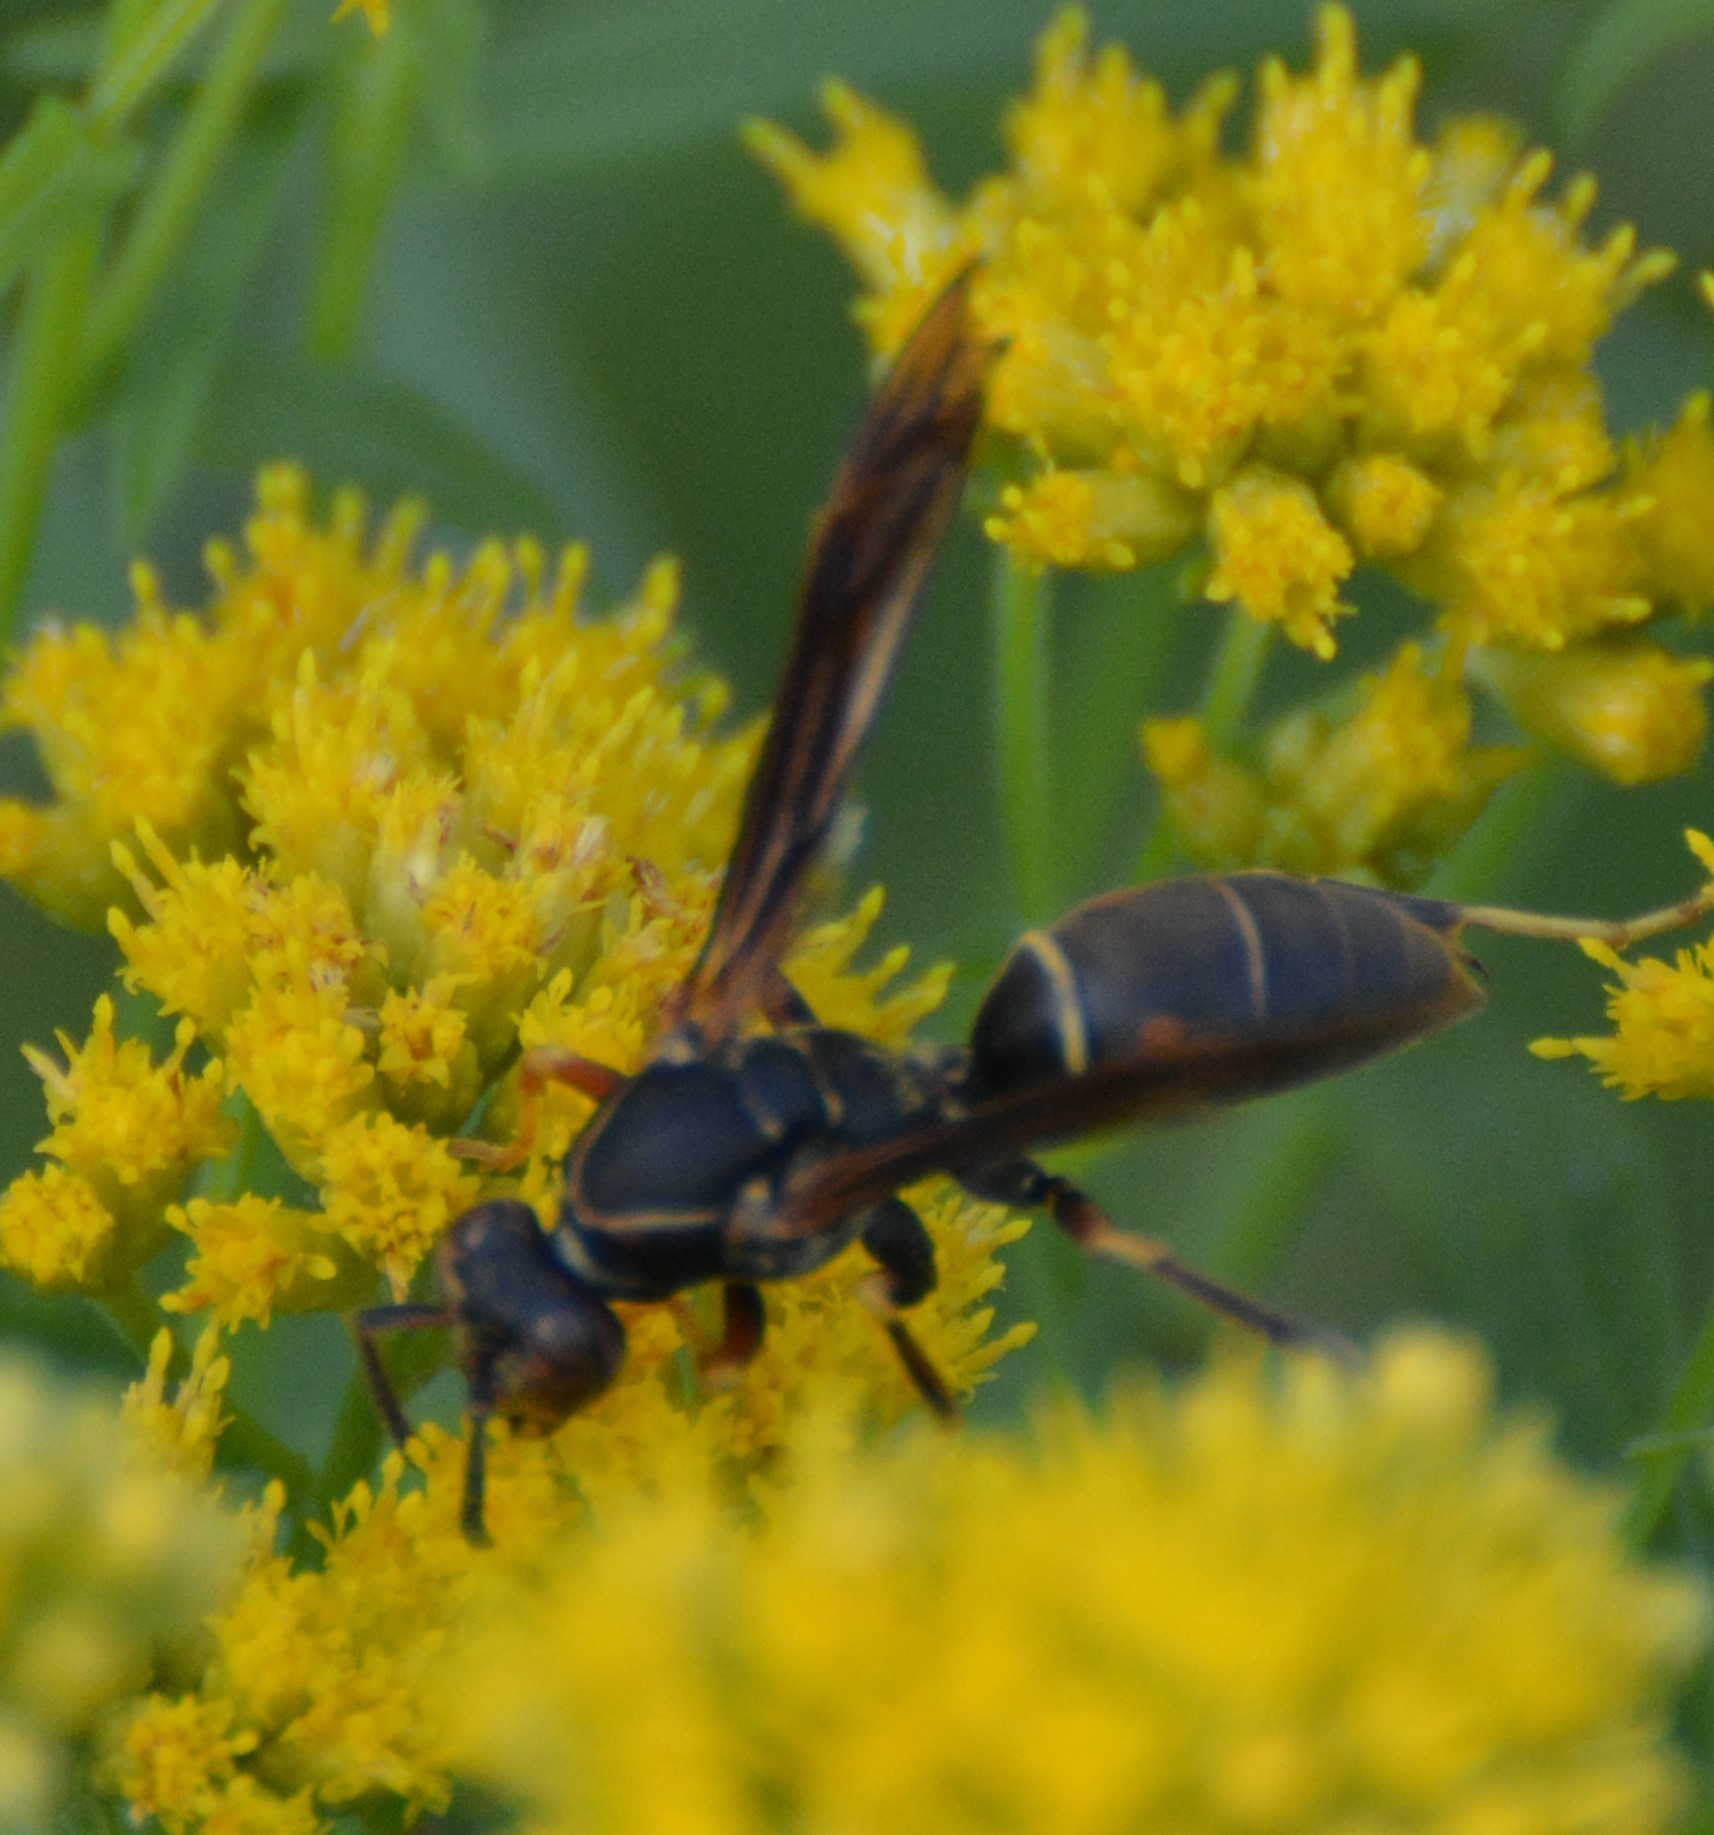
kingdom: Animalia
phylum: Arthropoda
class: Insecta
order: Hymenoptera
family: Eumenidae
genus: Polistes
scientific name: Polistes fuscatus
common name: Dark paper wasp
